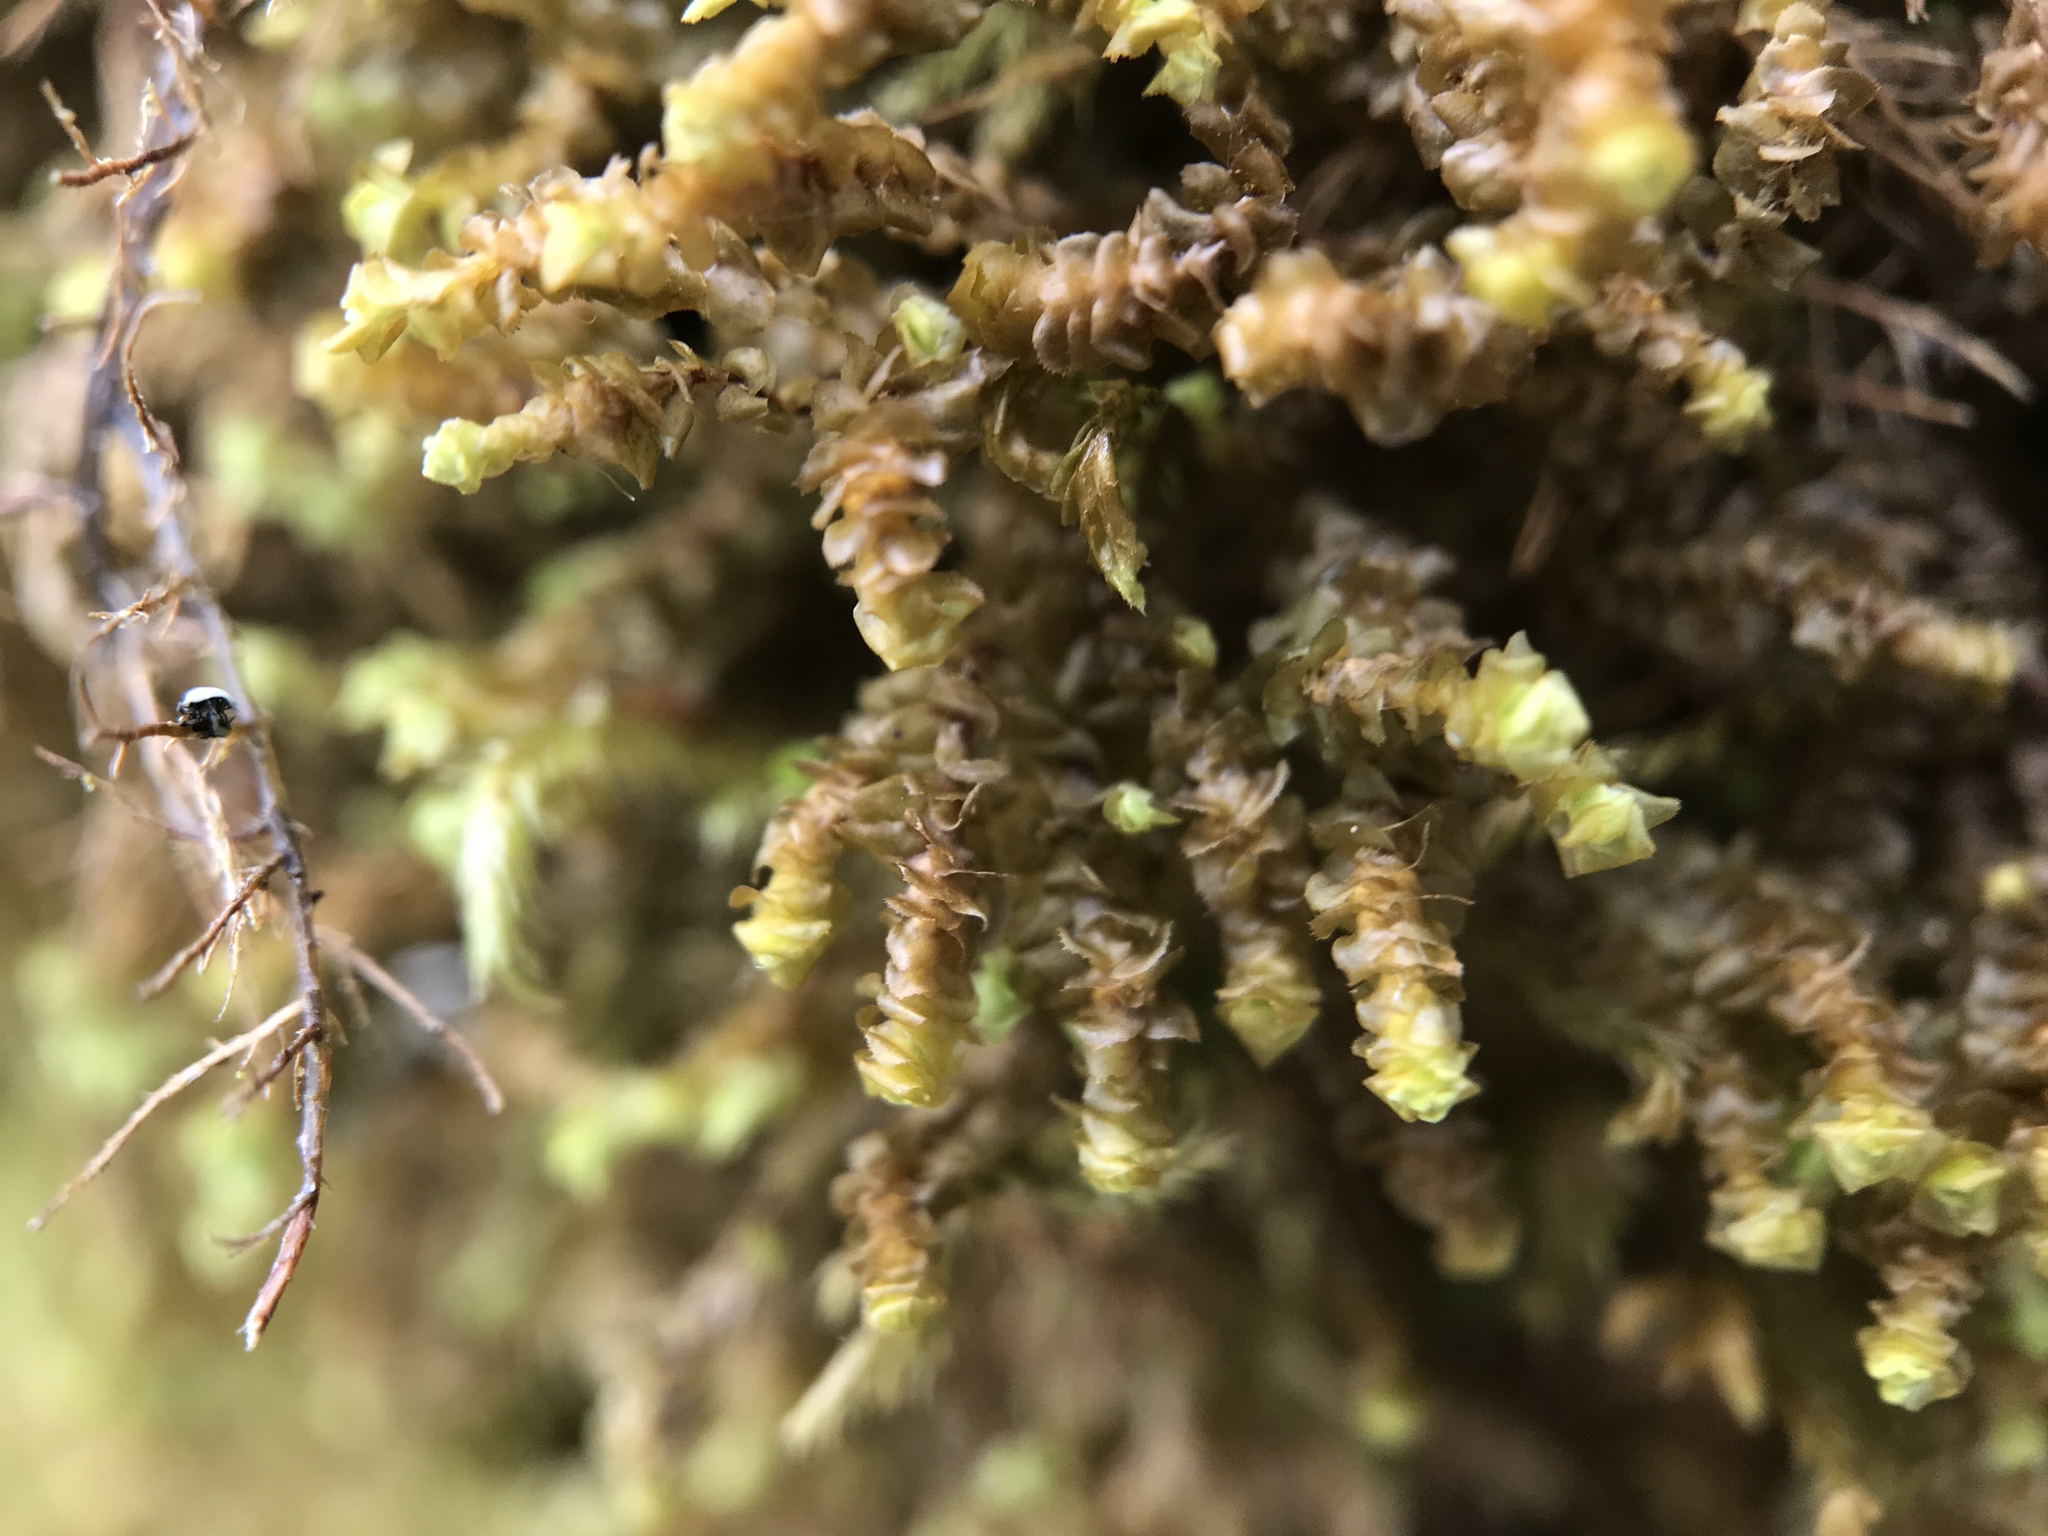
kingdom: Plantae
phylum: Marchantiophyta
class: Jungermanniopsida
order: Jungermanniales
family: Scapaniaceae
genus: Scapania
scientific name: Scapania gracilis
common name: Western earwort
